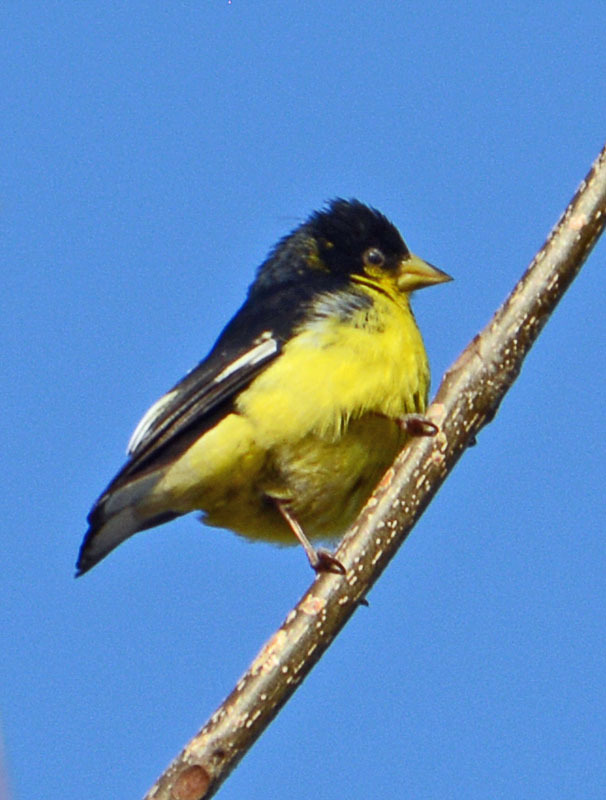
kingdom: Animalia
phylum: Chordata
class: Aves
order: Passeriformes
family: Fringillidae
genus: Spinus
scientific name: Spinus psaltria
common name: Lesser goldfinch
